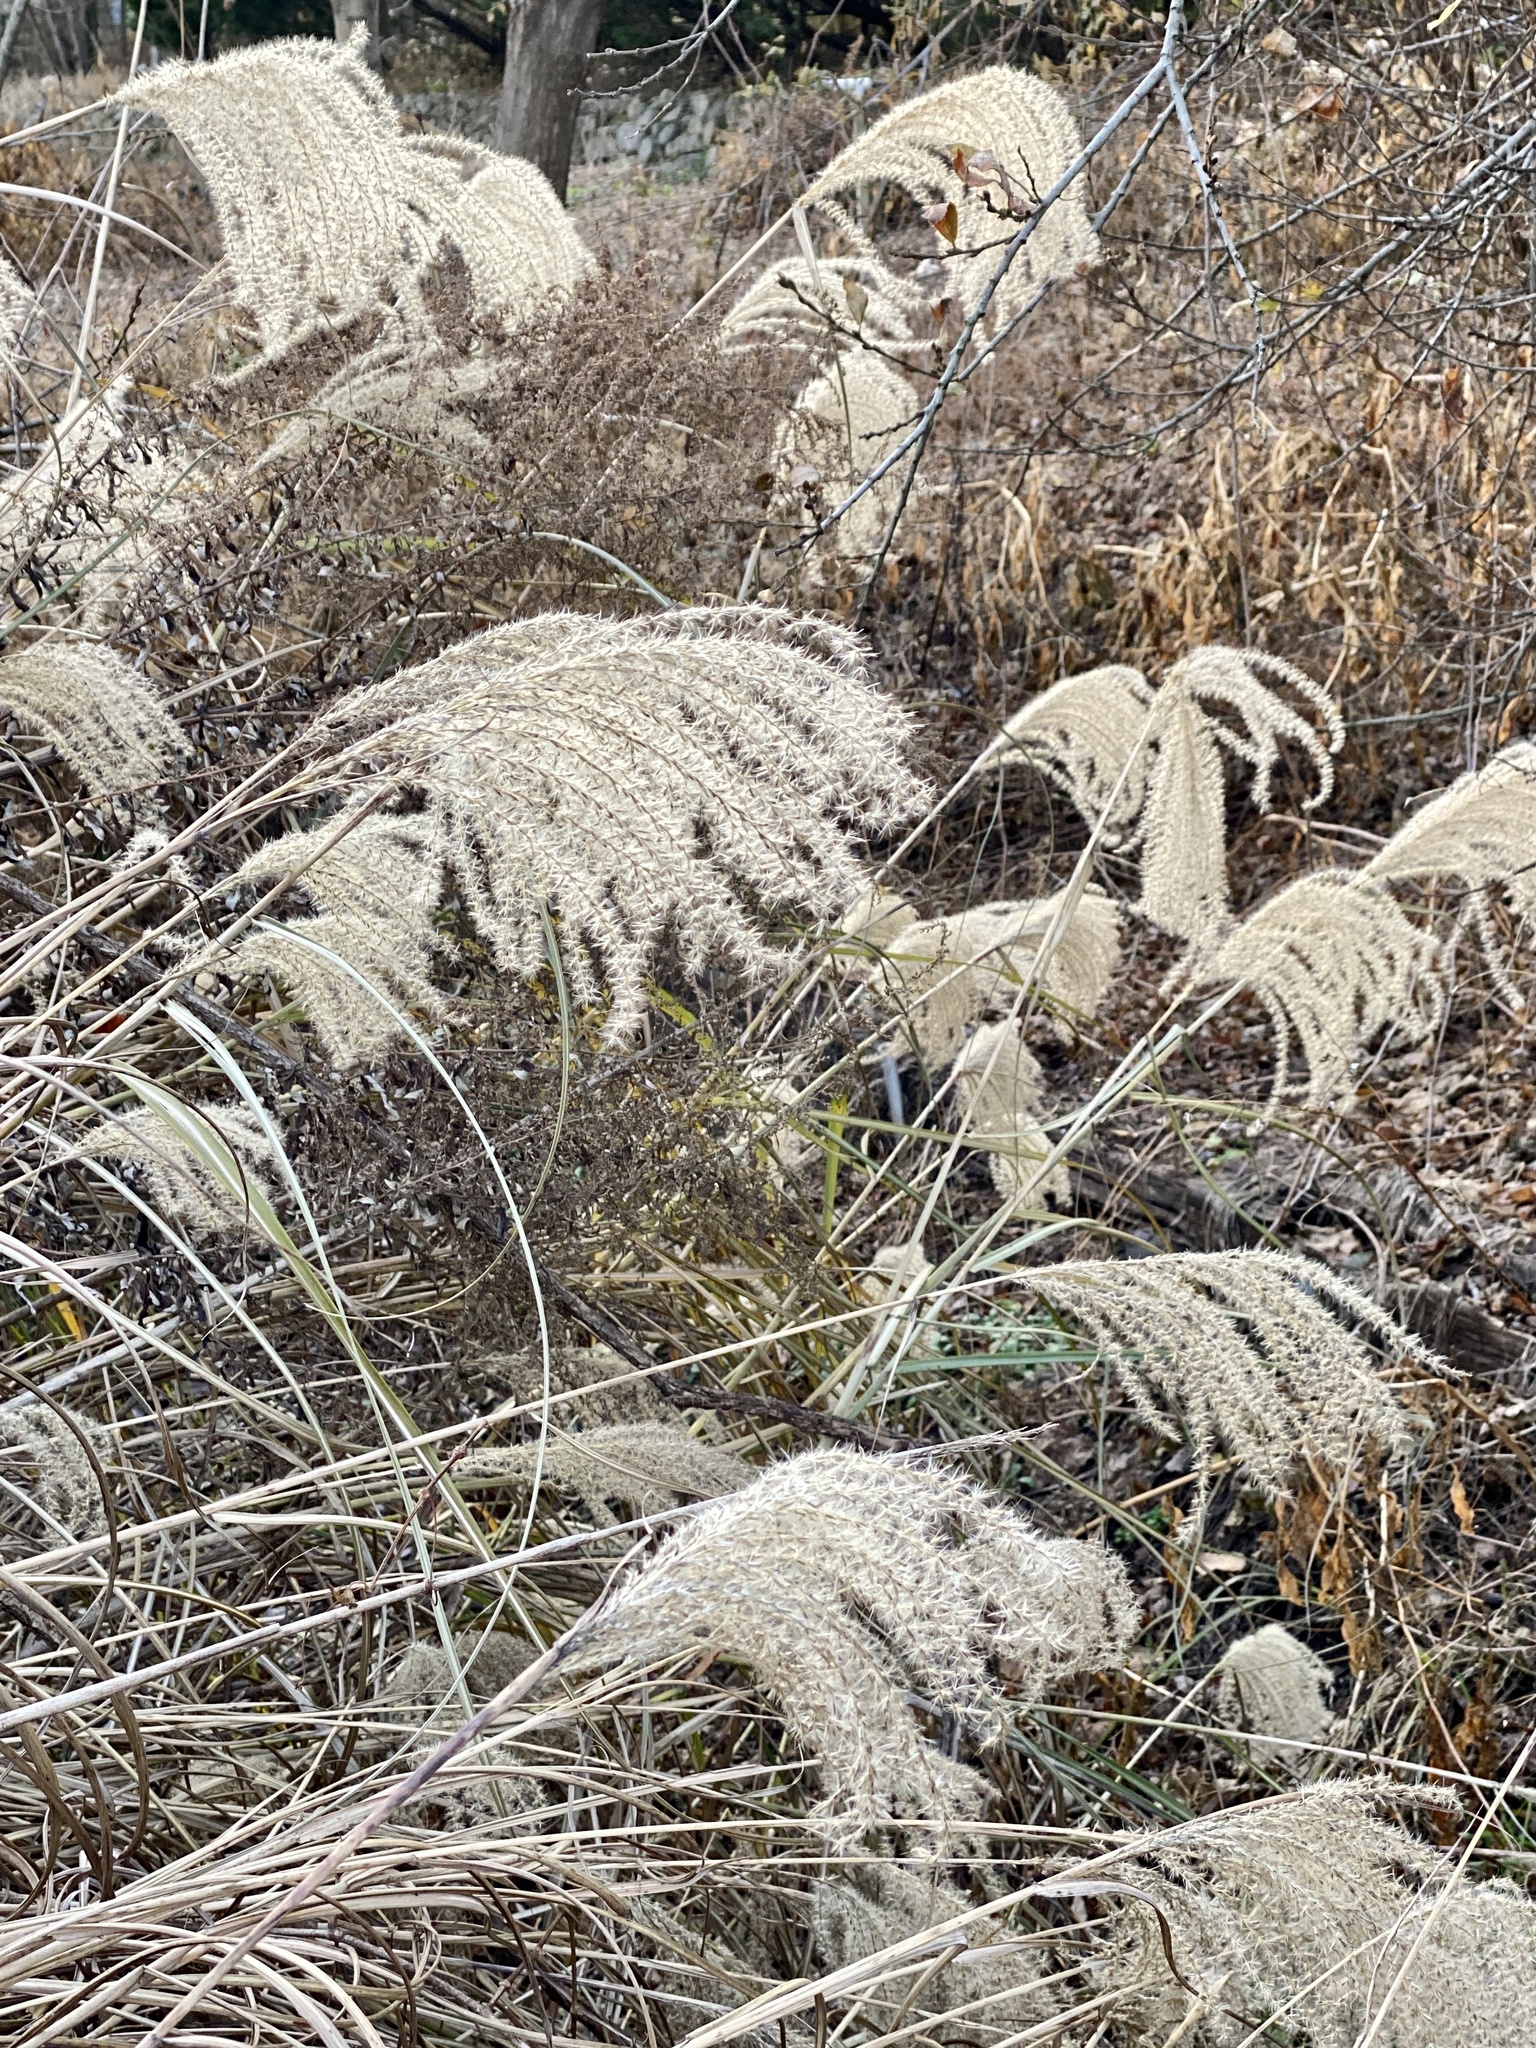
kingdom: Plantae
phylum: Tracheophyta
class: Liliopsida
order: Poales
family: Poaceae
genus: Miscanthus
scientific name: Miscanthus sinensis
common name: Chinese silvergrass
